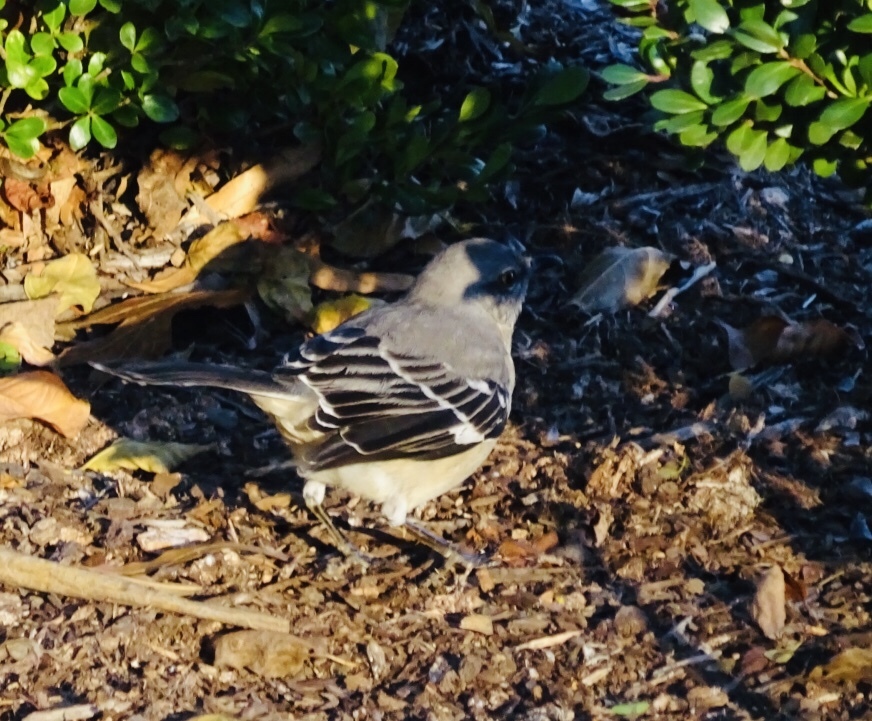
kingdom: Animalia
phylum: Chordata
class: Aves
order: Passeriformes
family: Mimidae
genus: Mimus
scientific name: Mimus polyglottos
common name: Northern mockingbird
